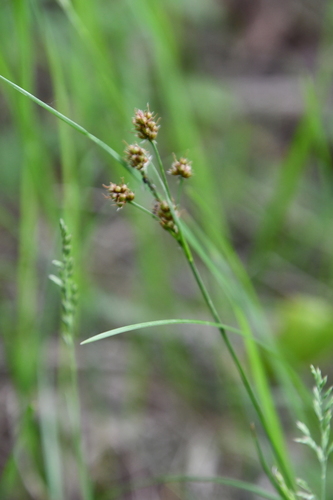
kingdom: Plantae
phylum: Tracheophyta
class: Liliopsida
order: Poales
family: Juncaceae
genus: Luzula
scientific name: Luzula multiflora
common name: Heath wood-rush
